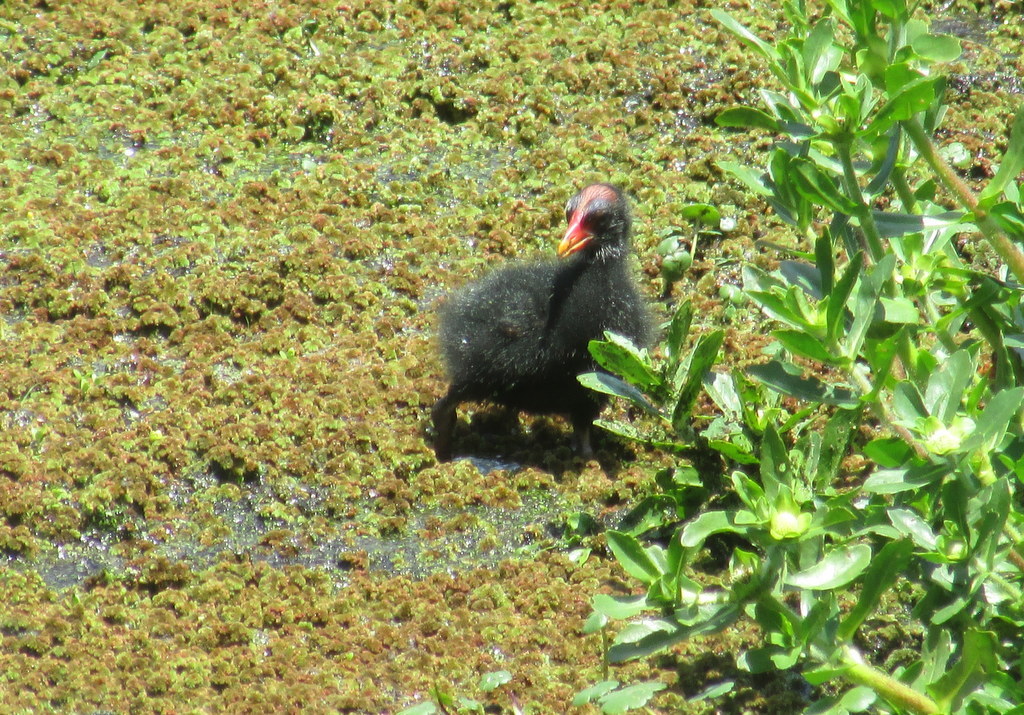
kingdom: Animalia
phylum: Chordata
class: Aves
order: Gruiformes
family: Rallidae
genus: Gallinula
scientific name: Gallinula chloropus
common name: Common moorhen
